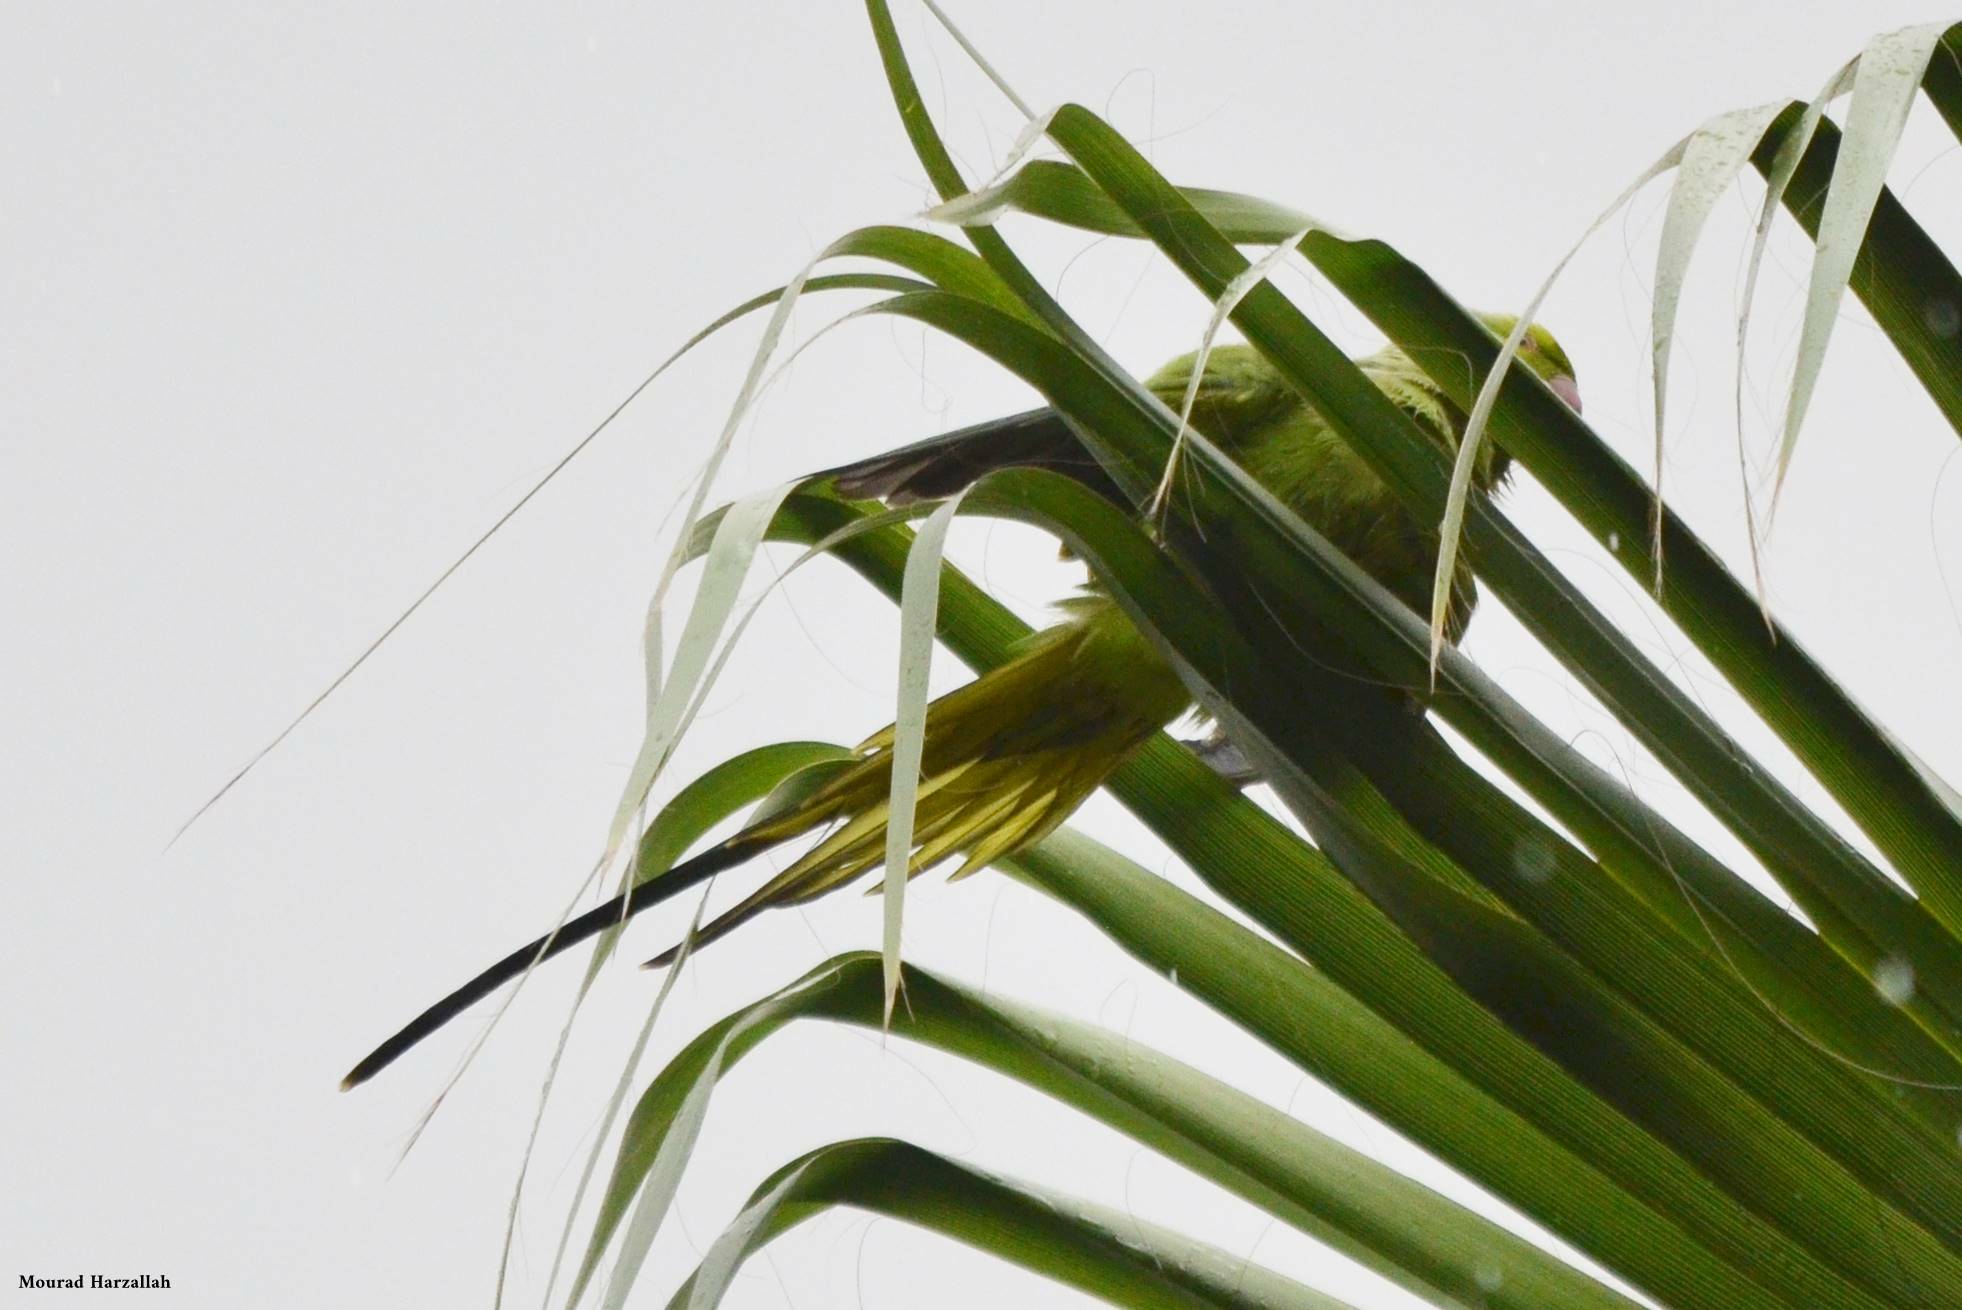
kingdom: Animalia
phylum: Chordata
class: Aves
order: Psittaciformes
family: Psittacidae
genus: Psittacula
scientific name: Psittacula krameri
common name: Rose-ringed parakeet
